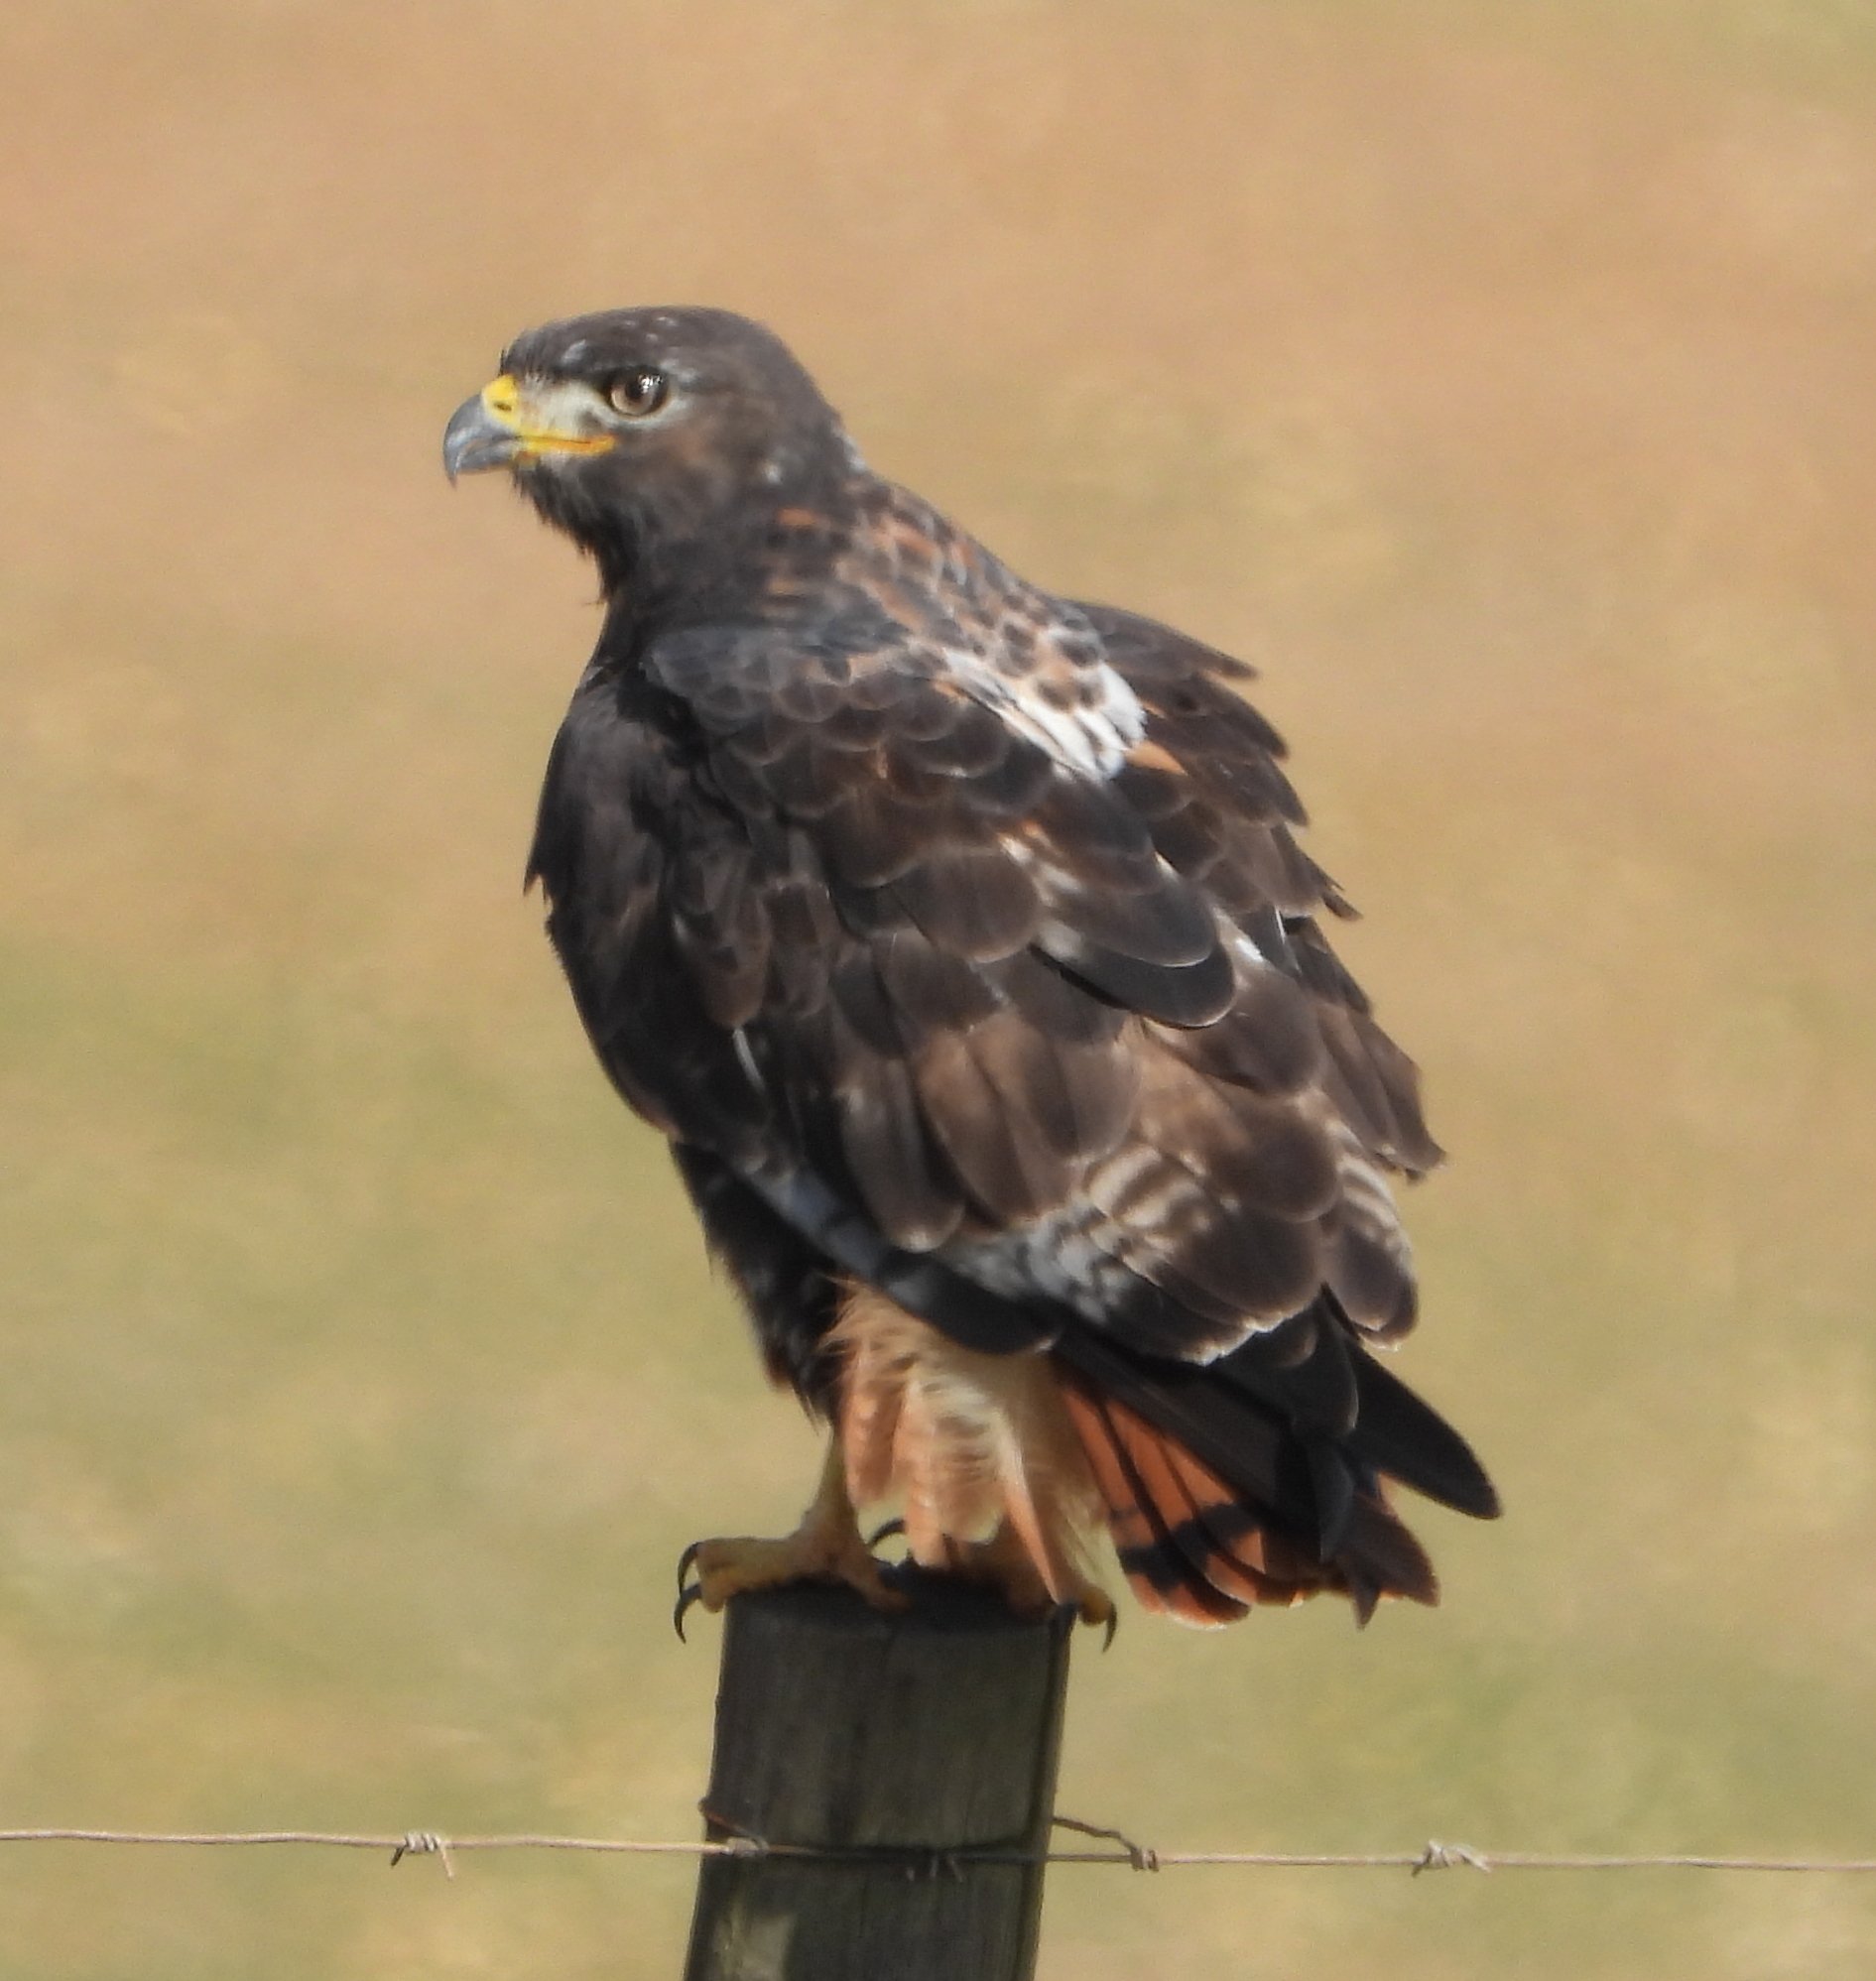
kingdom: Animalia
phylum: Chordata
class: Aves
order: Accipitriformes
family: Accipitridae
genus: Buteo
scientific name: Buteo rufofuscus
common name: Jackal buzzard
